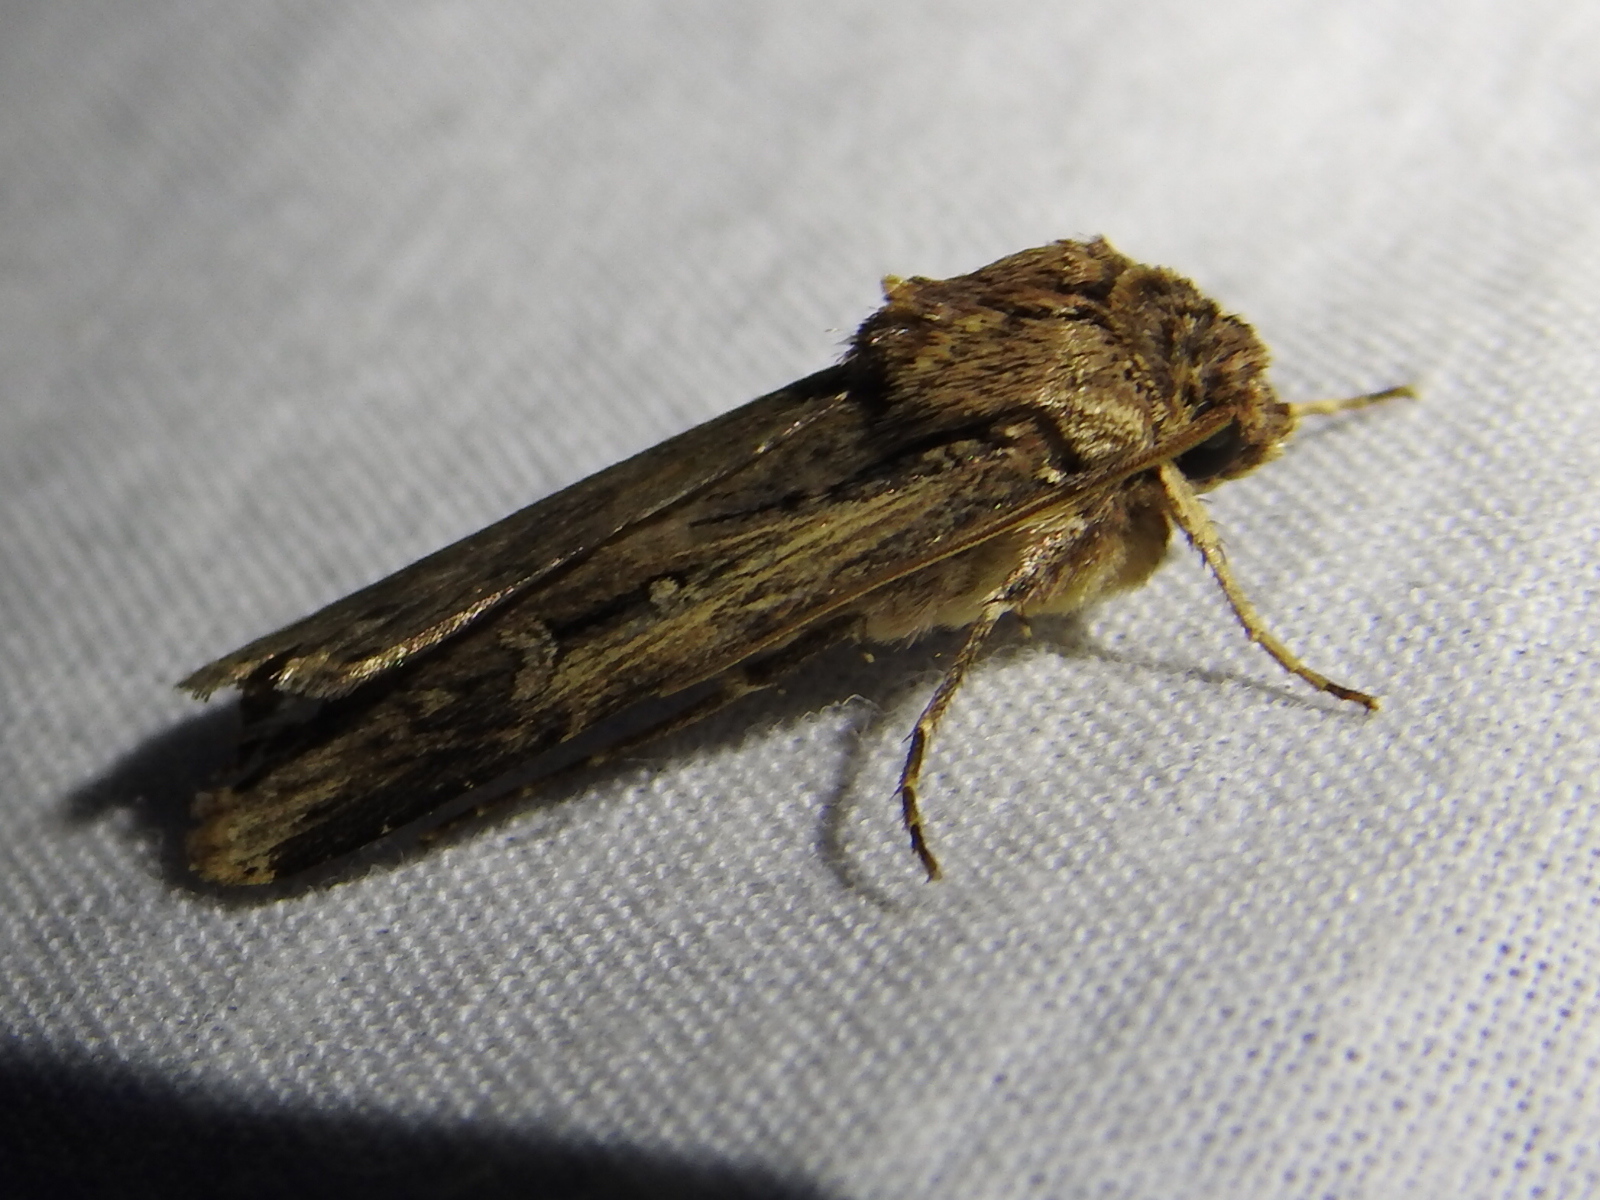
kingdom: Animalia
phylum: Arthropoda
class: Insecta
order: Lepidoptera
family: Noctuidae
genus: Feltia
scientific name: Feltia subterranea
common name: Granulate cutworm
